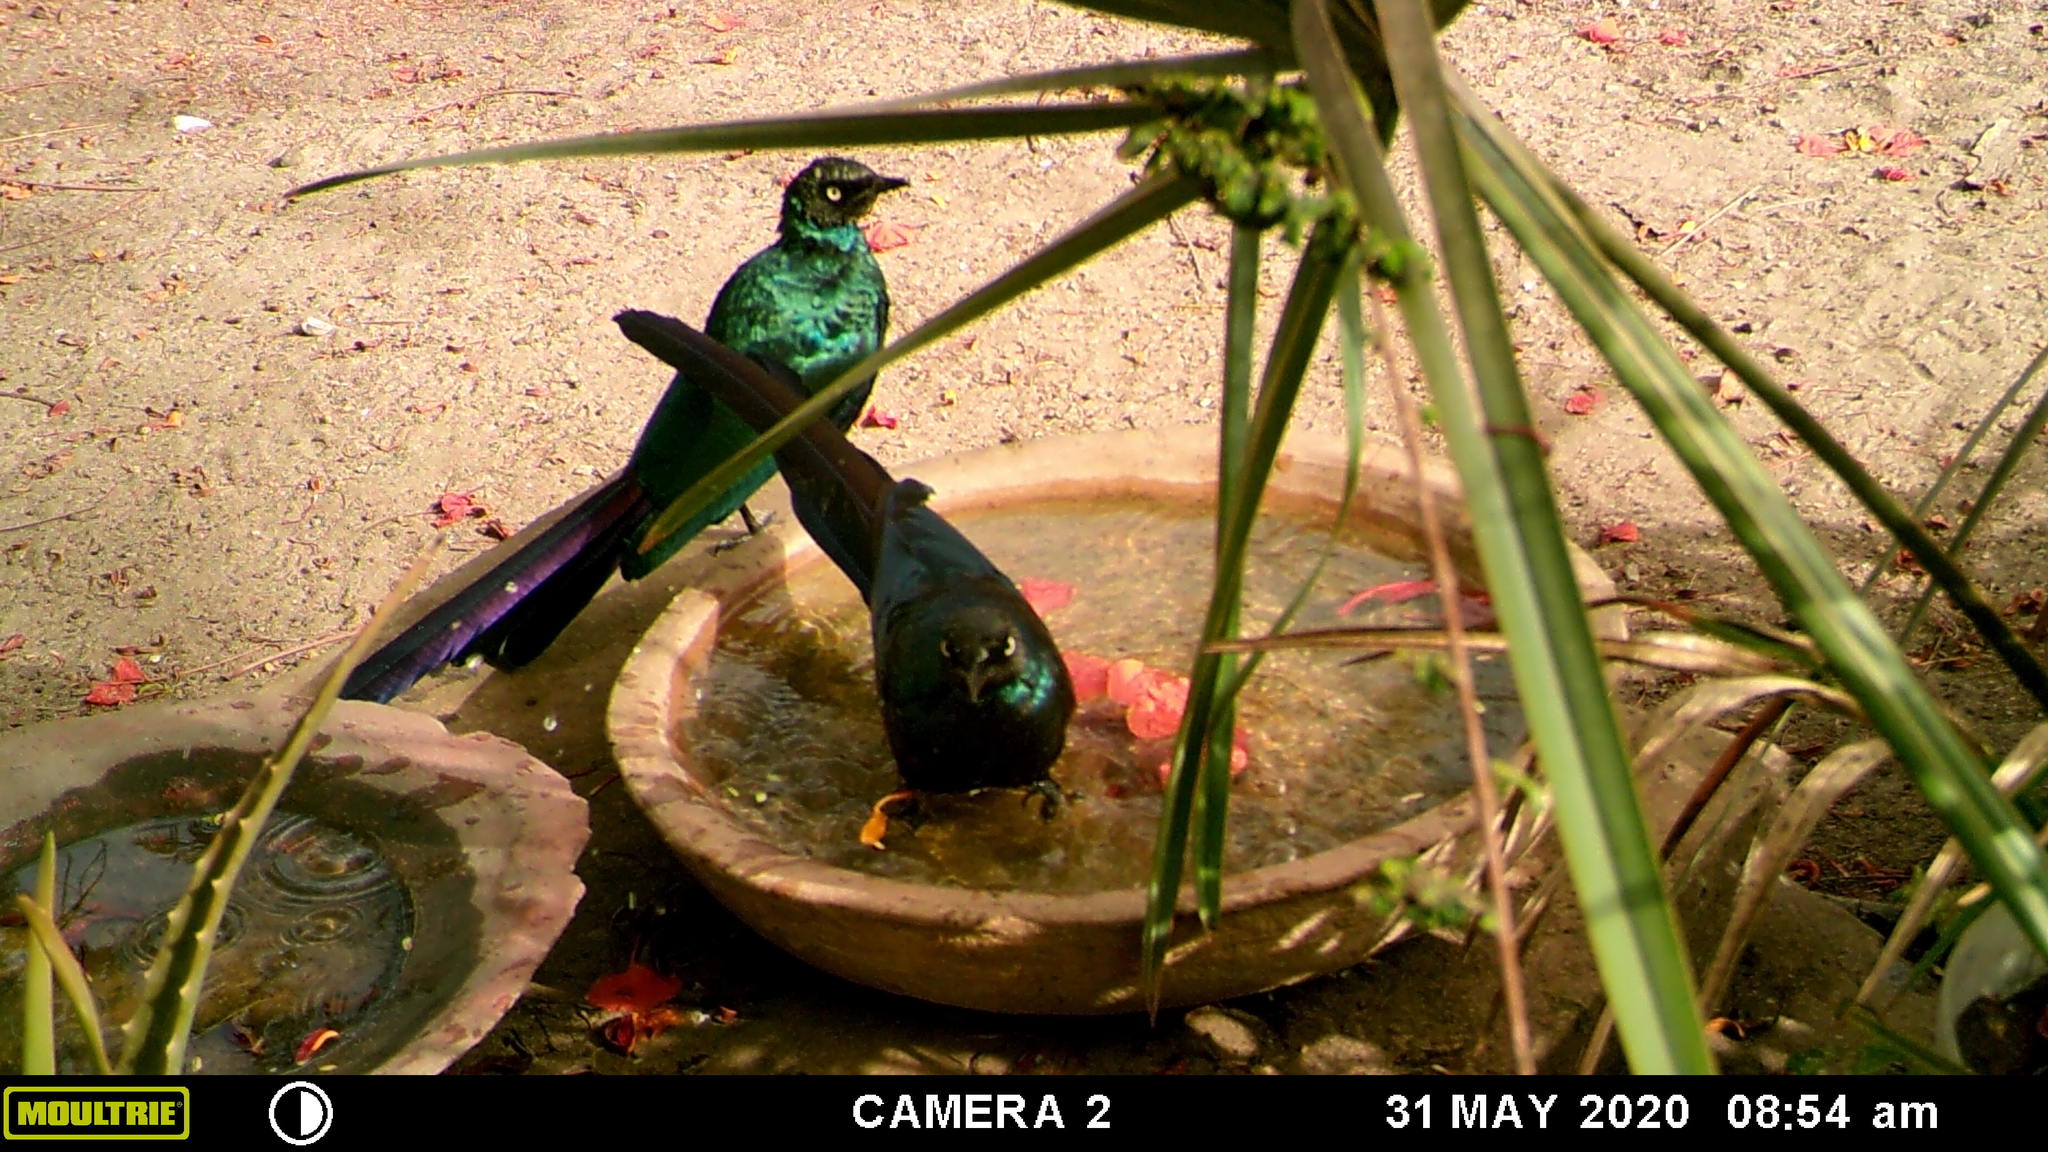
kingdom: Animalia
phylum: Chordata
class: Aves
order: Passeriformes
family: Sturnidae
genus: Lamprotornis
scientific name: Lamprotornis caudatus
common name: Long-tailed glossy starling
